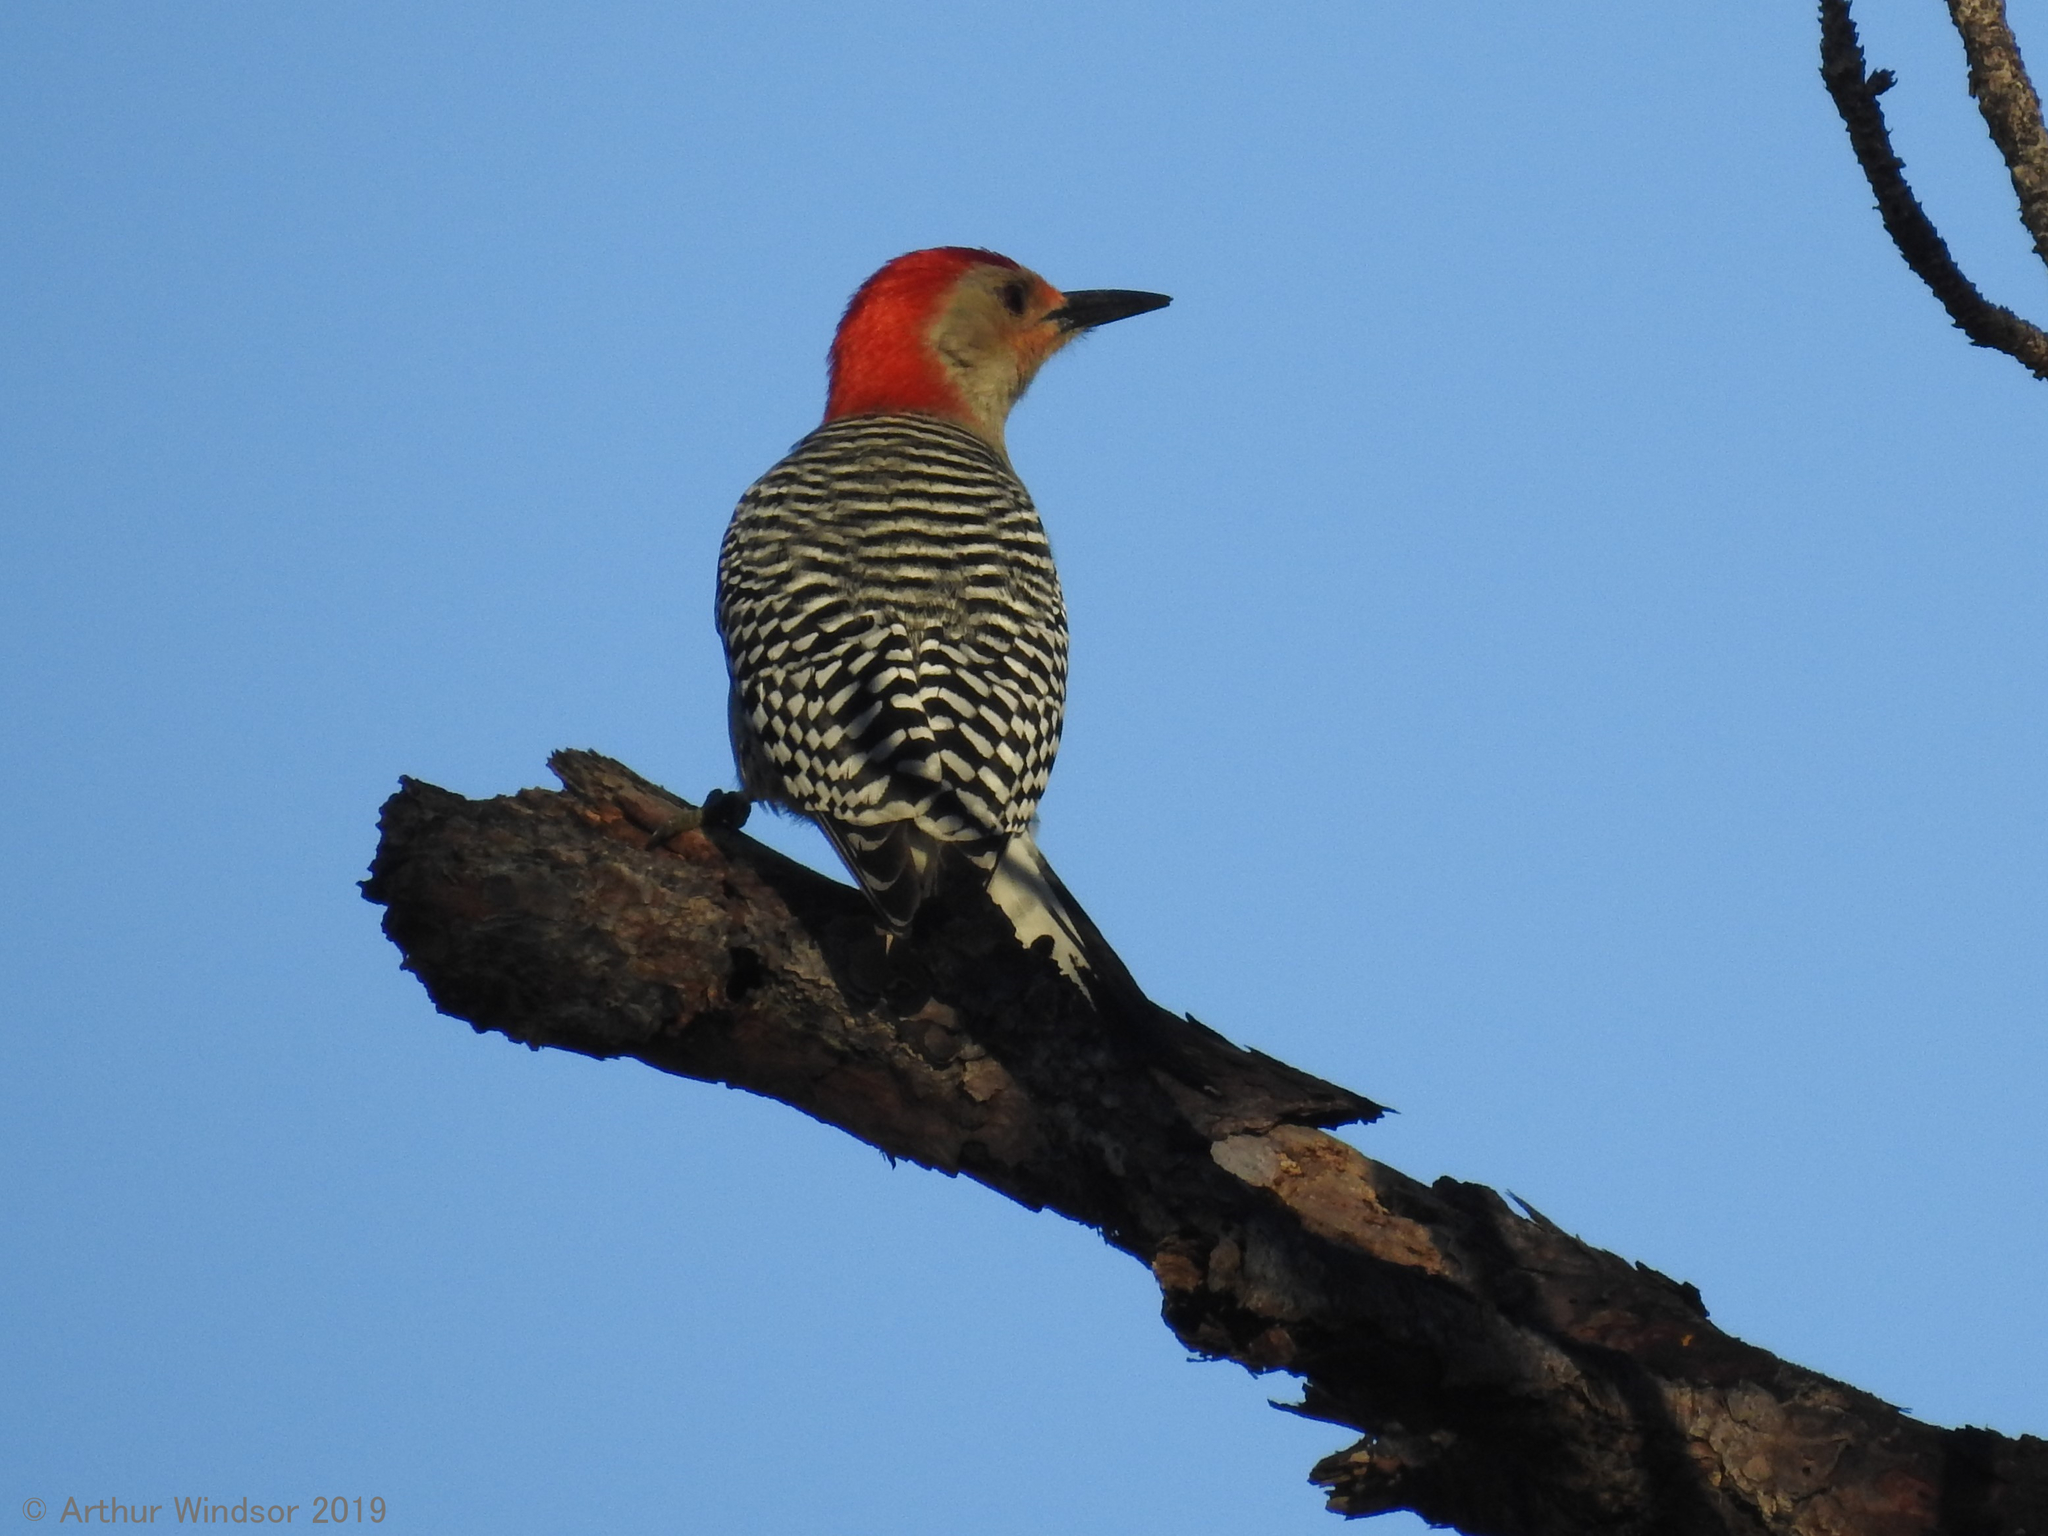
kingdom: Animalia
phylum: Chordata
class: Aves
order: Piciformes
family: Picidae
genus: Melanerpes
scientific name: Melanerpes carolinus
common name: Red-bellied woodpecker
